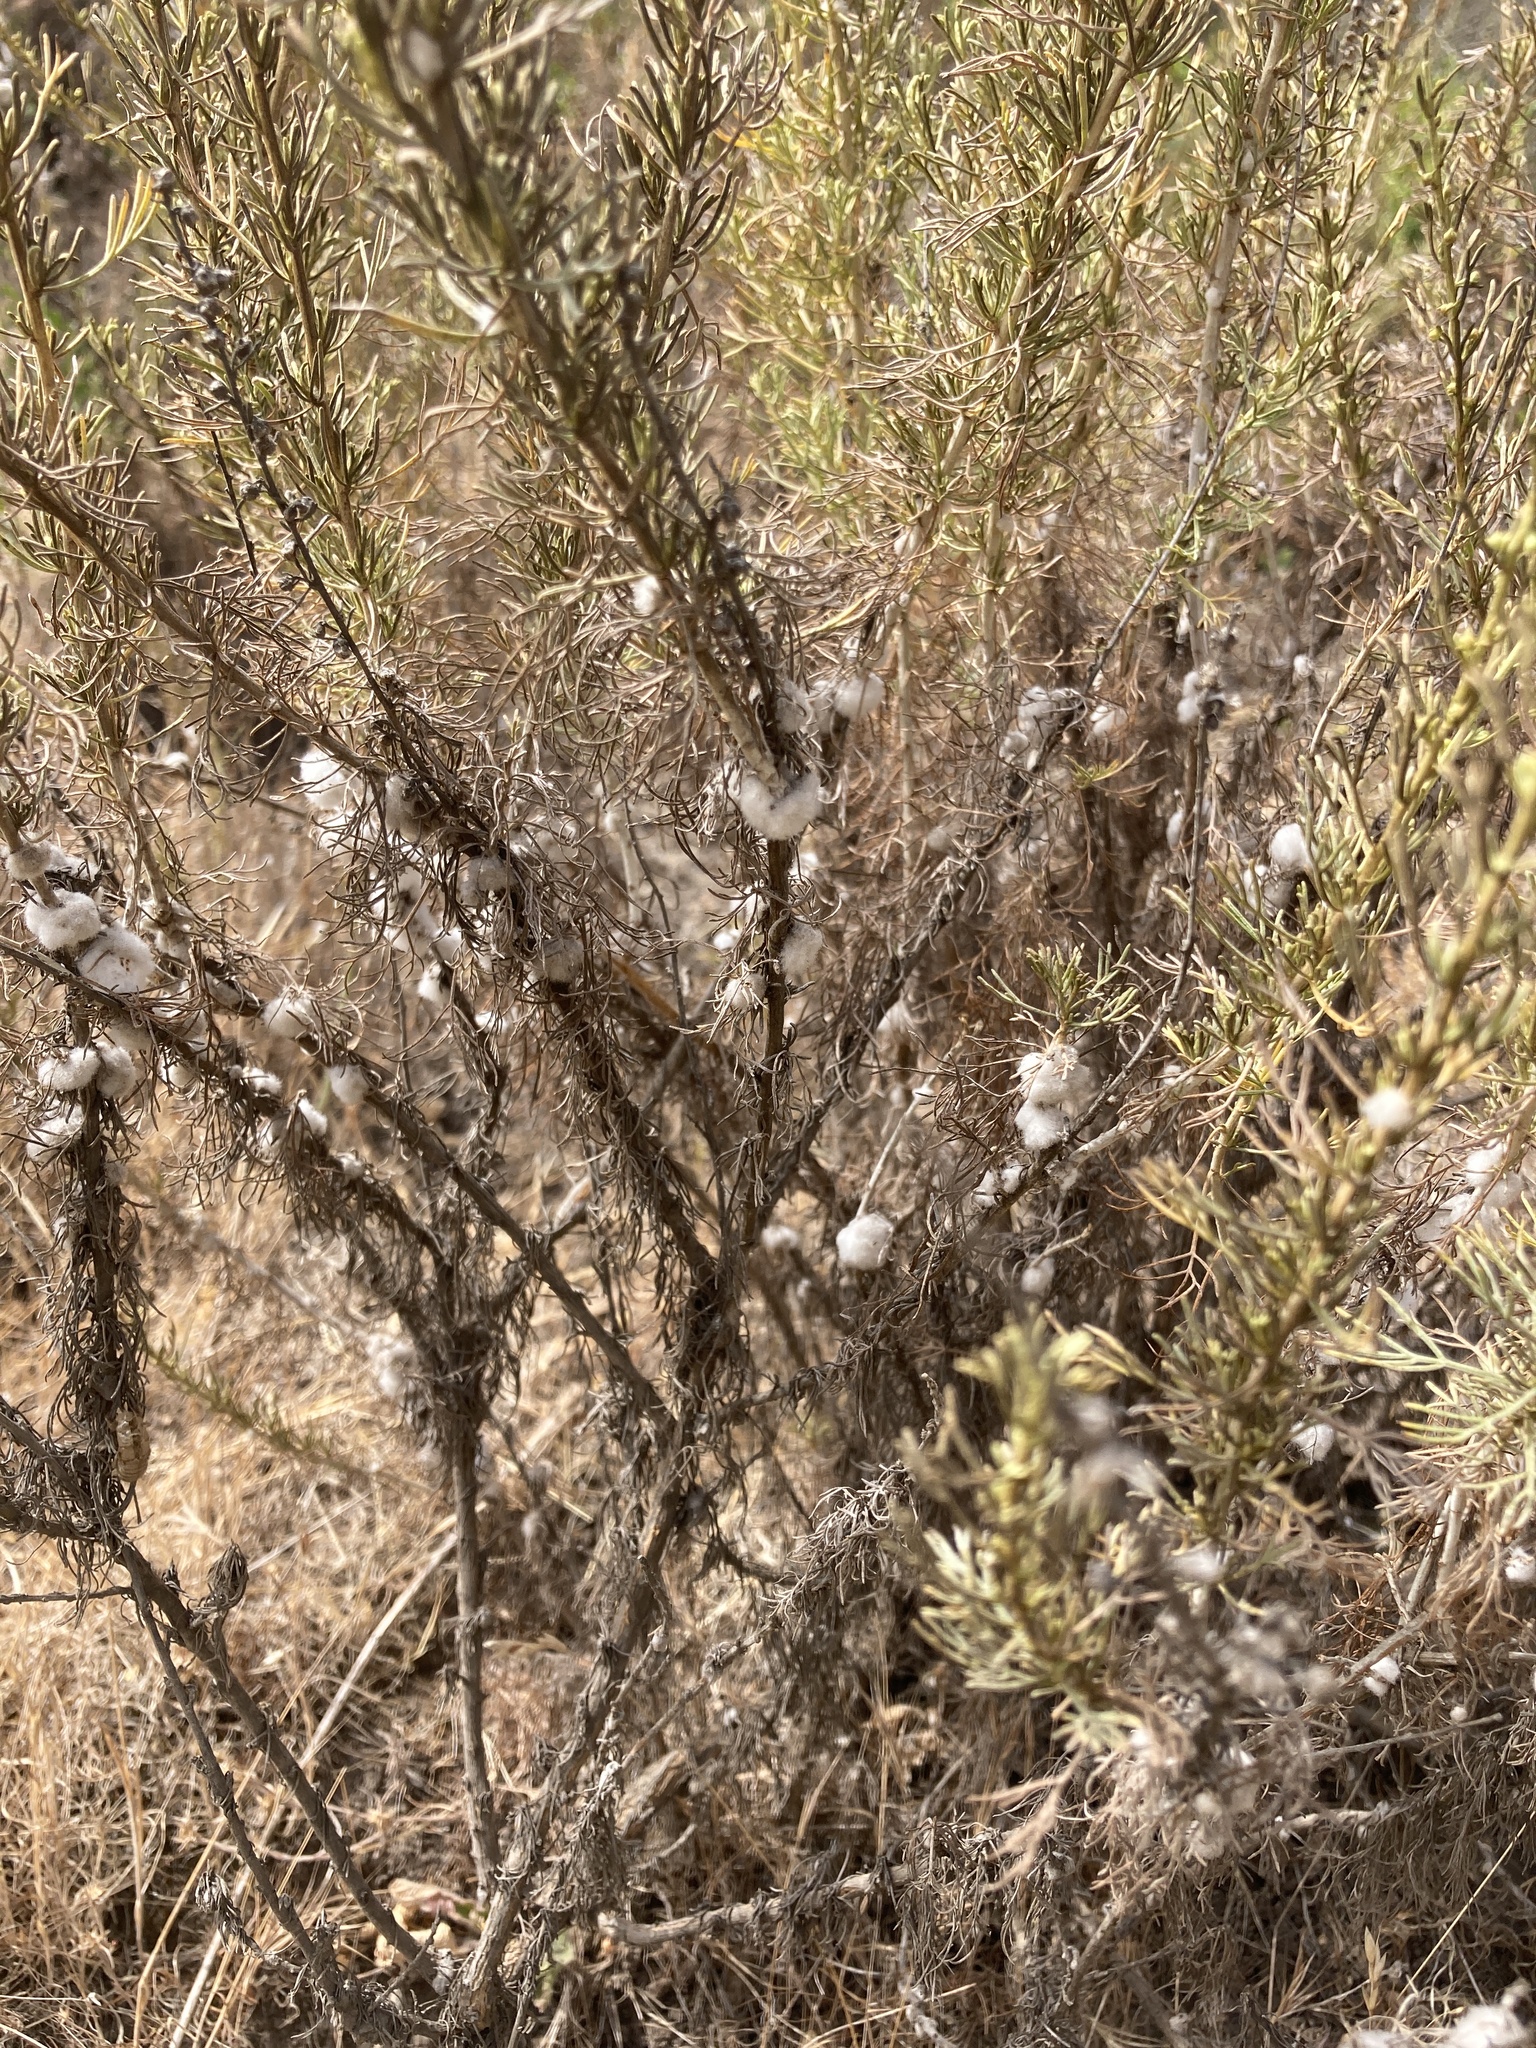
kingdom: Animalia
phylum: Arthropoda
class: Insecta
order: Diptera
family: Cecidomyiidae
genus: Rhopalomyia
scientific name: Rhopalomyia floccosa
